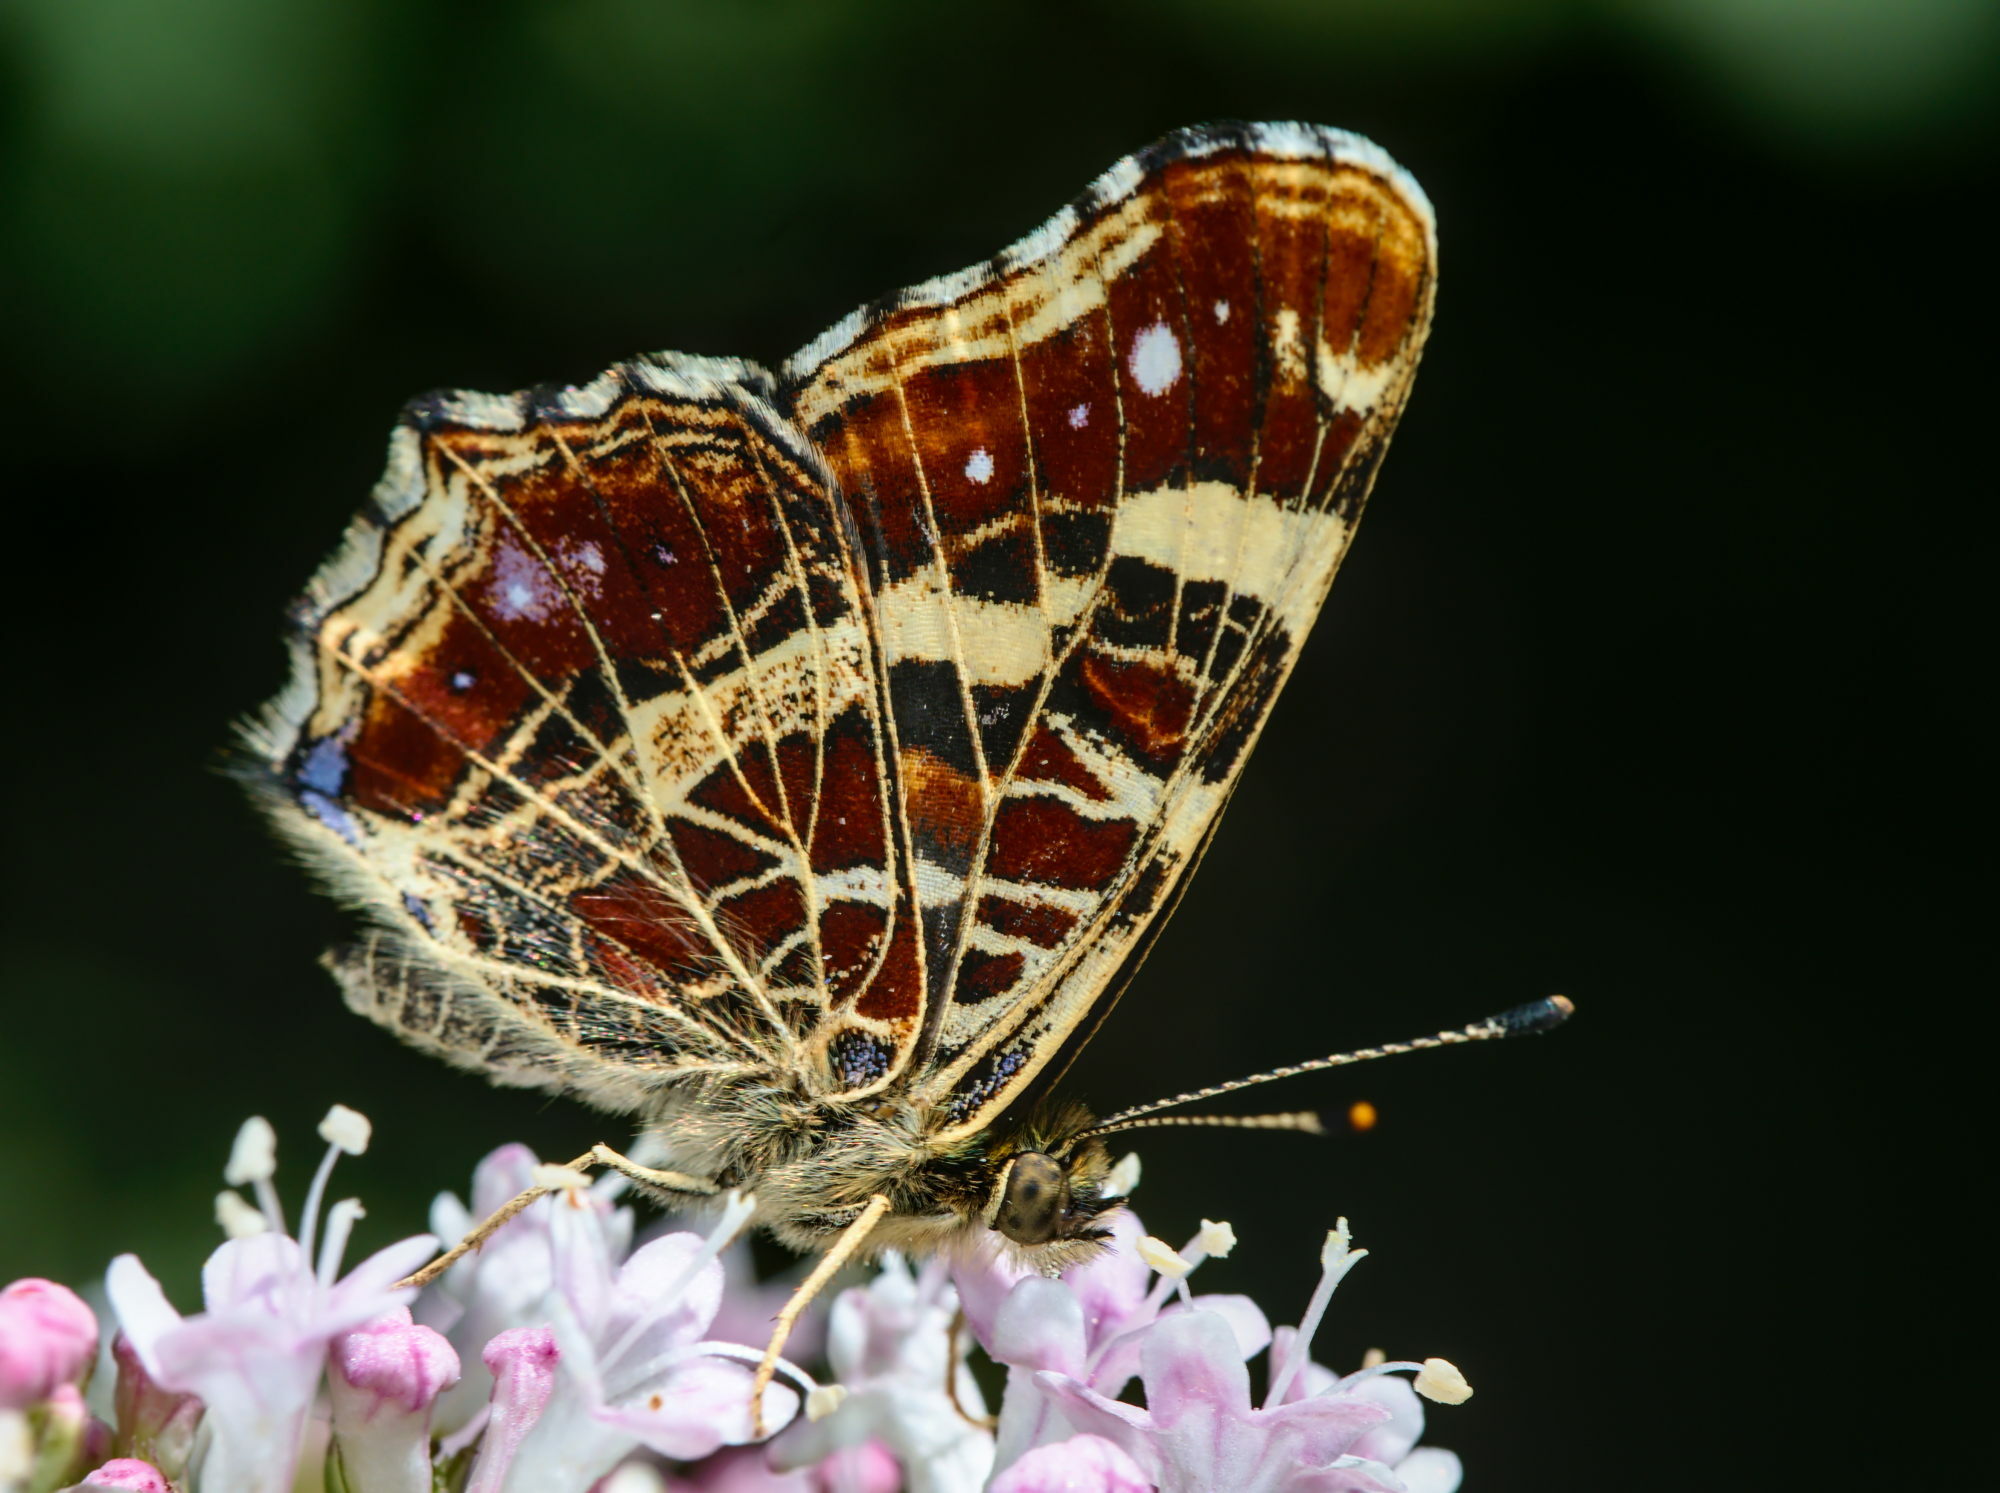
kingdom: Animalia
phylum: Arthropoda
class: Insecta
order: Lepidoptera
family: Nymphalidae
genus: Araschnia
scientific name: Araschnia levana
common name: Map butterfly
